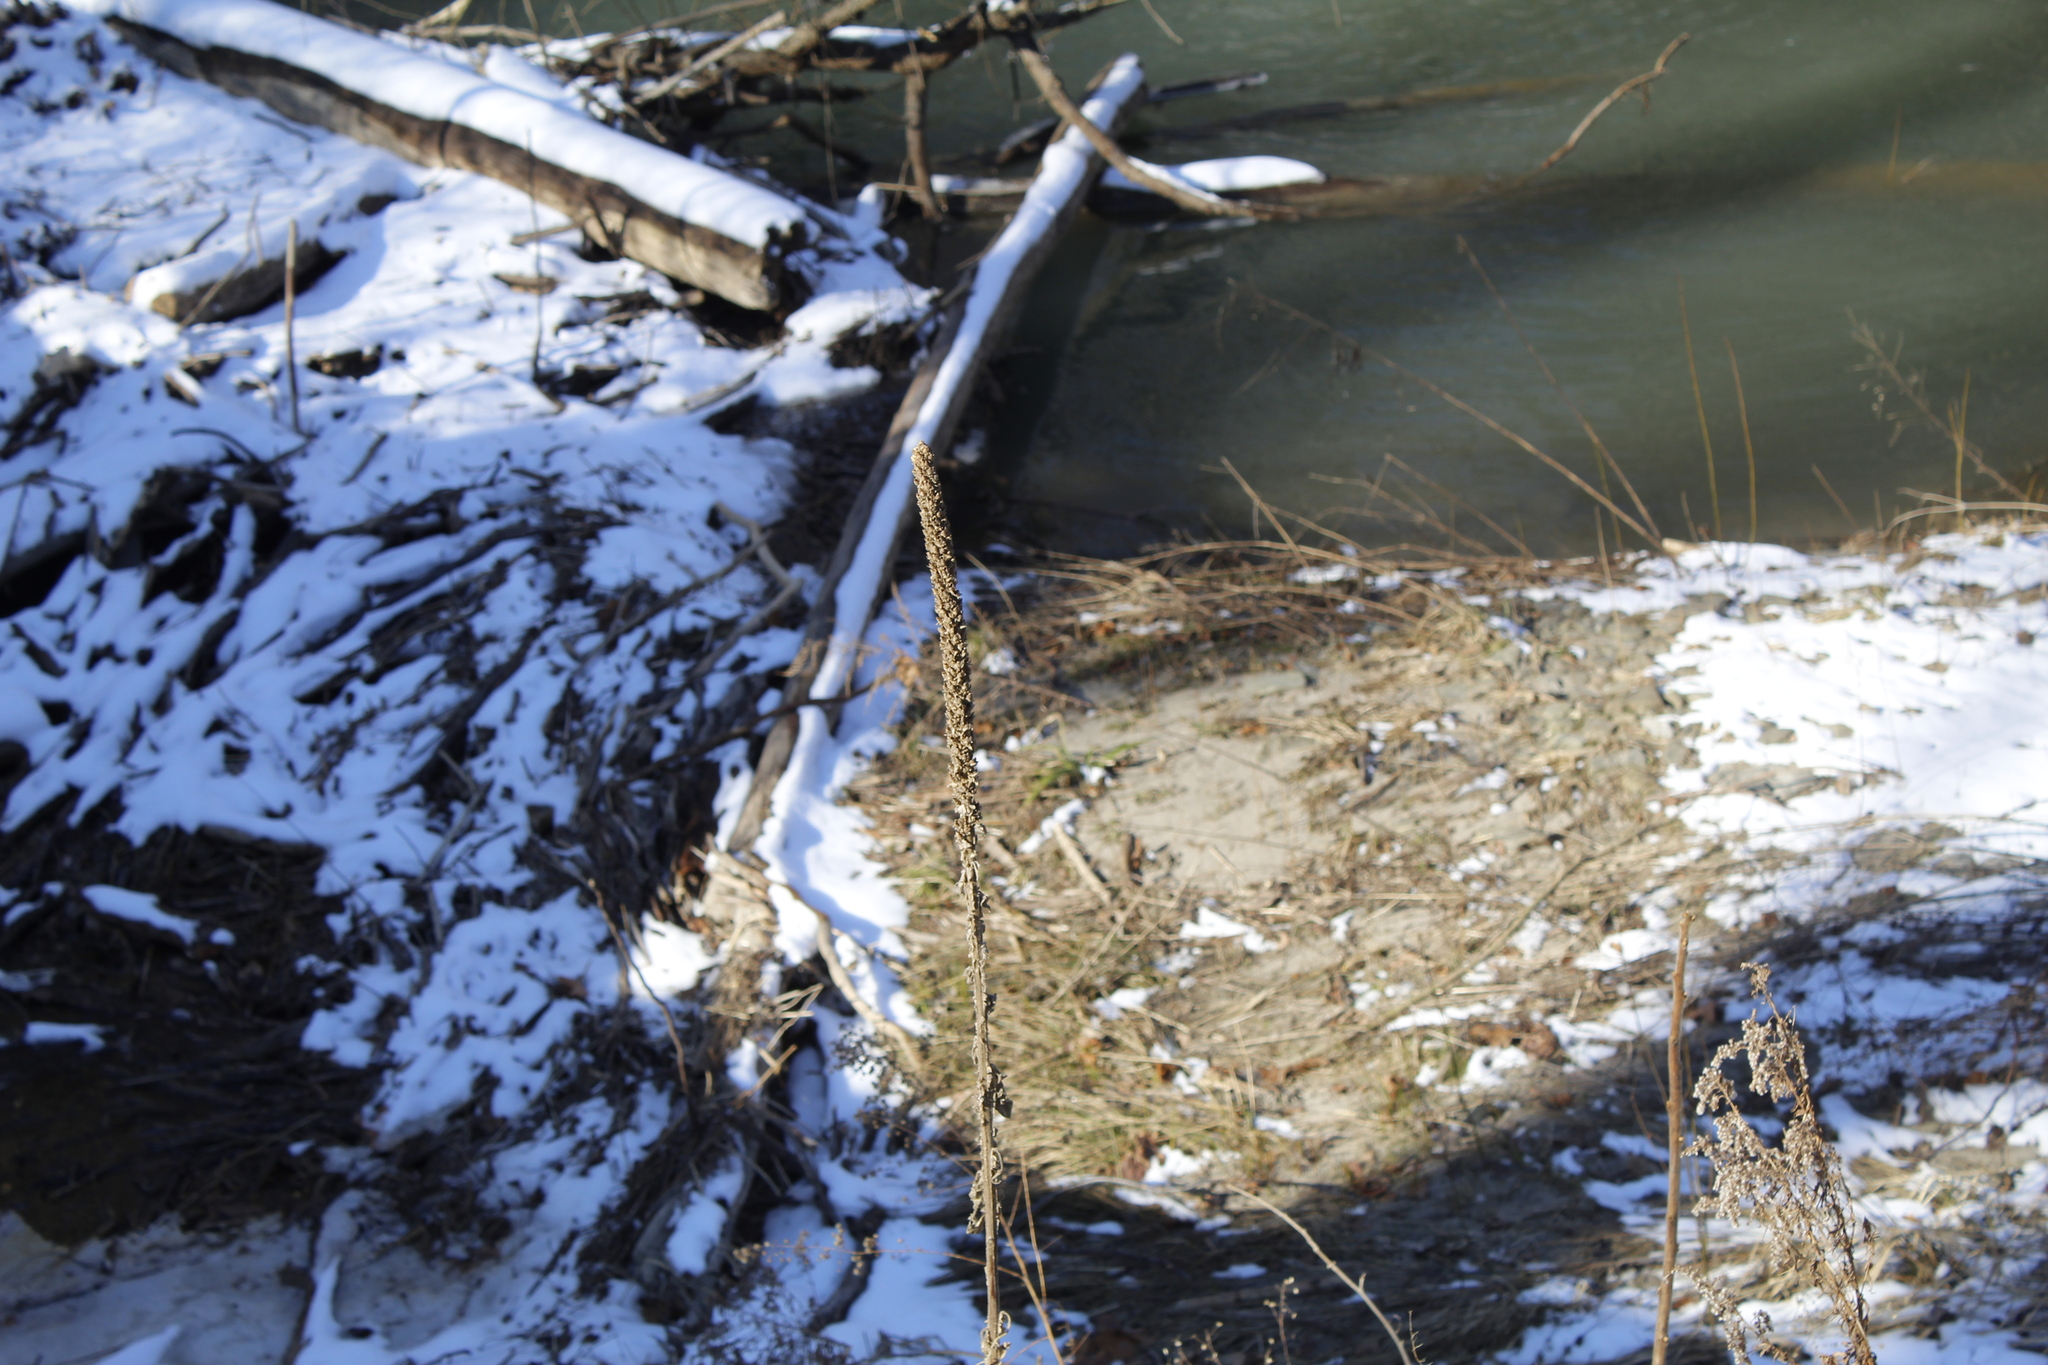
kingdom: Plantae
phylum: Tracheophyta
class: Magnoliopsida
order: Lamiales
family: Scrophulariaceae
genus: Verbascum
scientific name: Verbascum thapsus
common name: Common mullein
